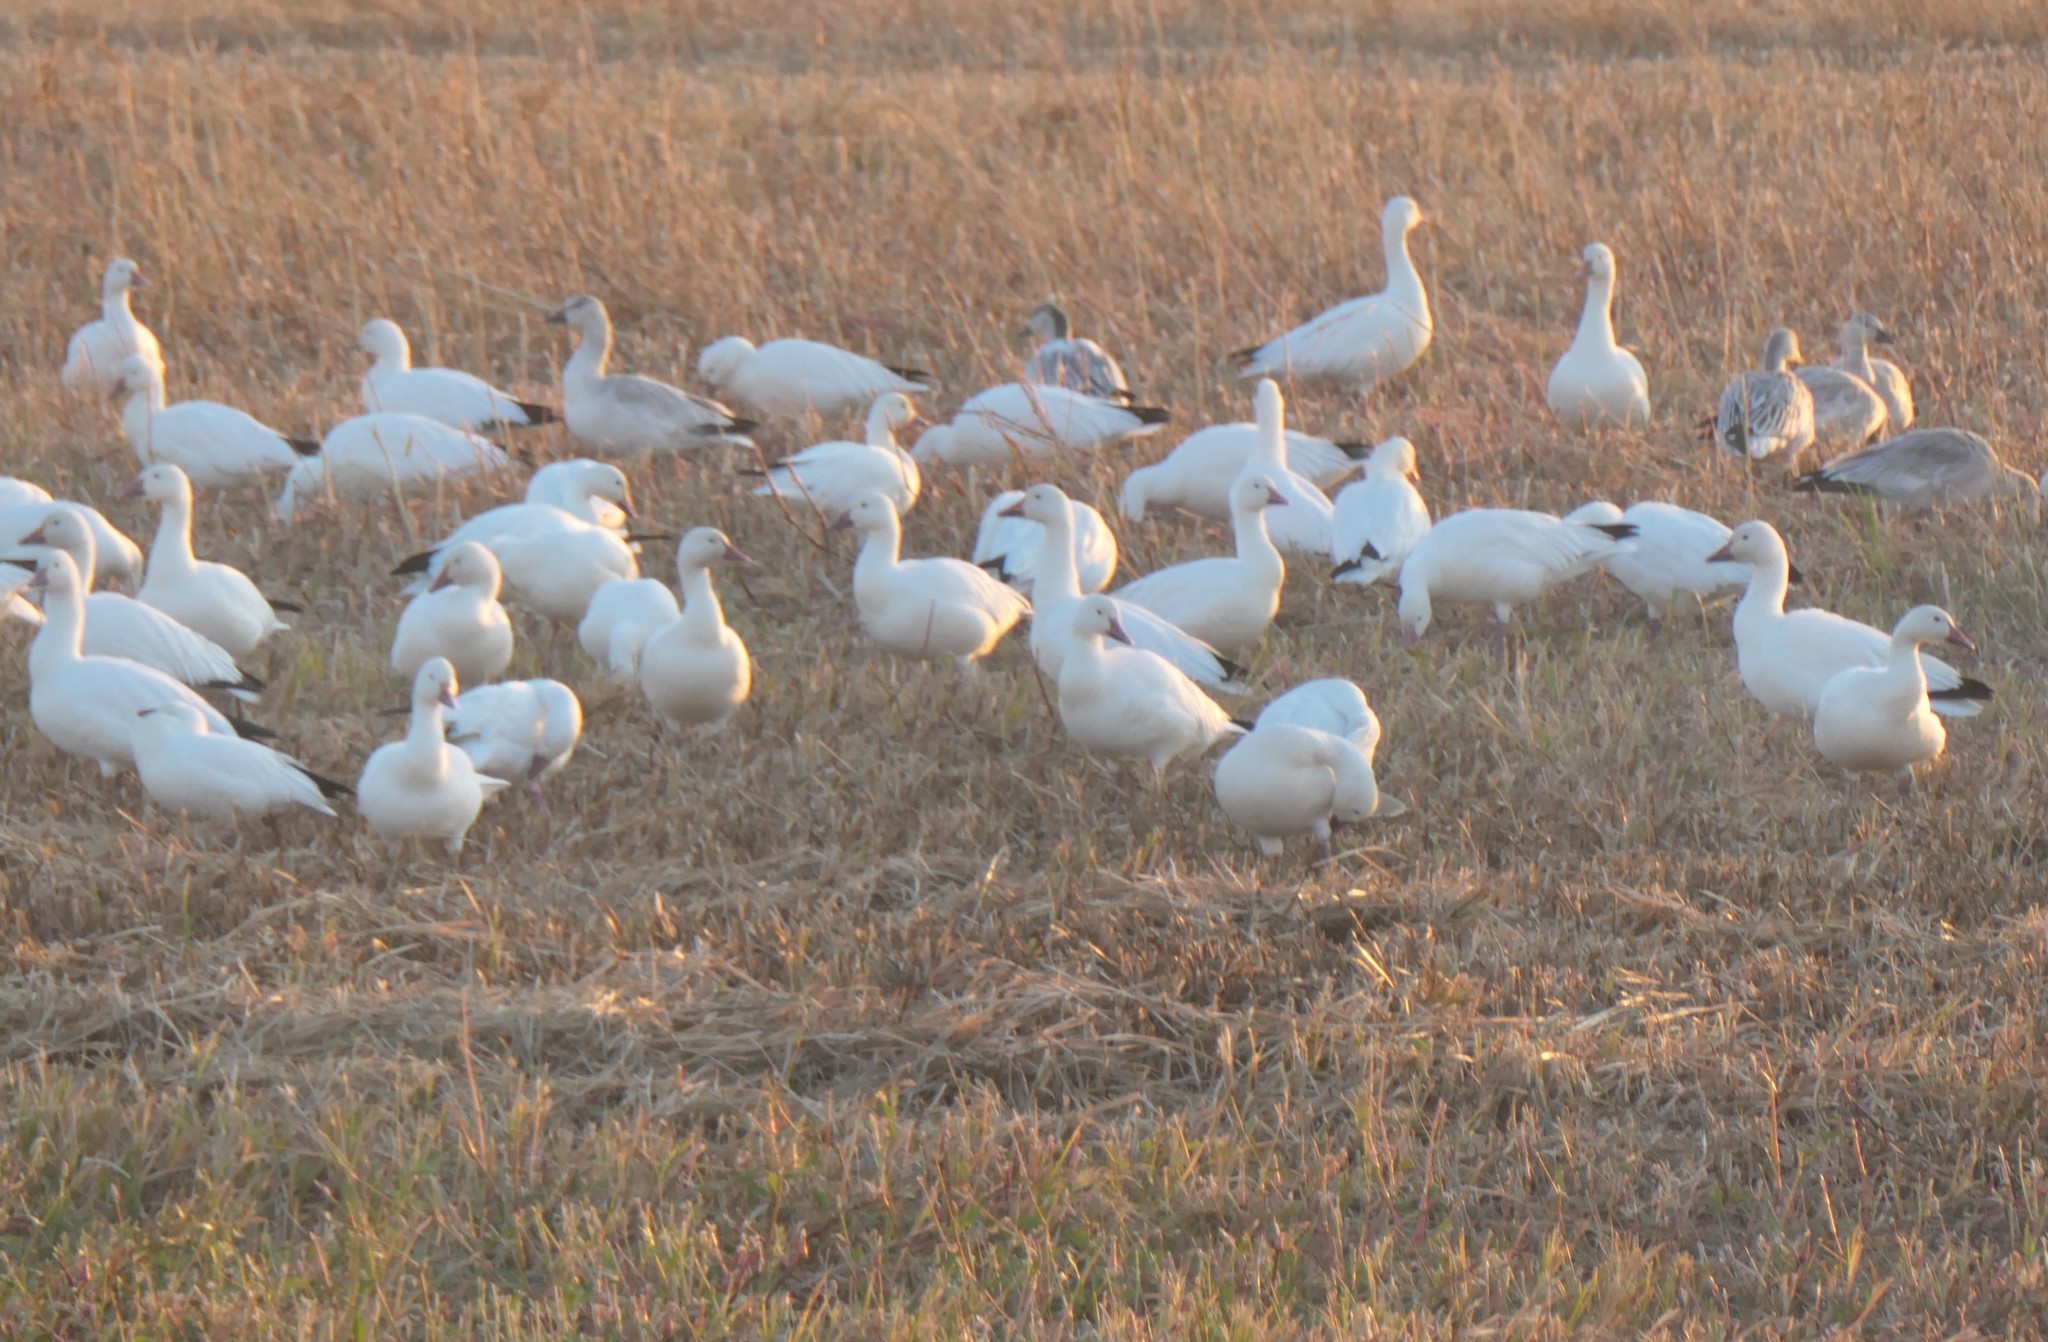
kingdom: Animalia
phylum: Chordata
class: Aves
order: Anseriformes
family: Anatidae
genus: Anser
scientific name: Anser caerulescens
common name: Snow goose
